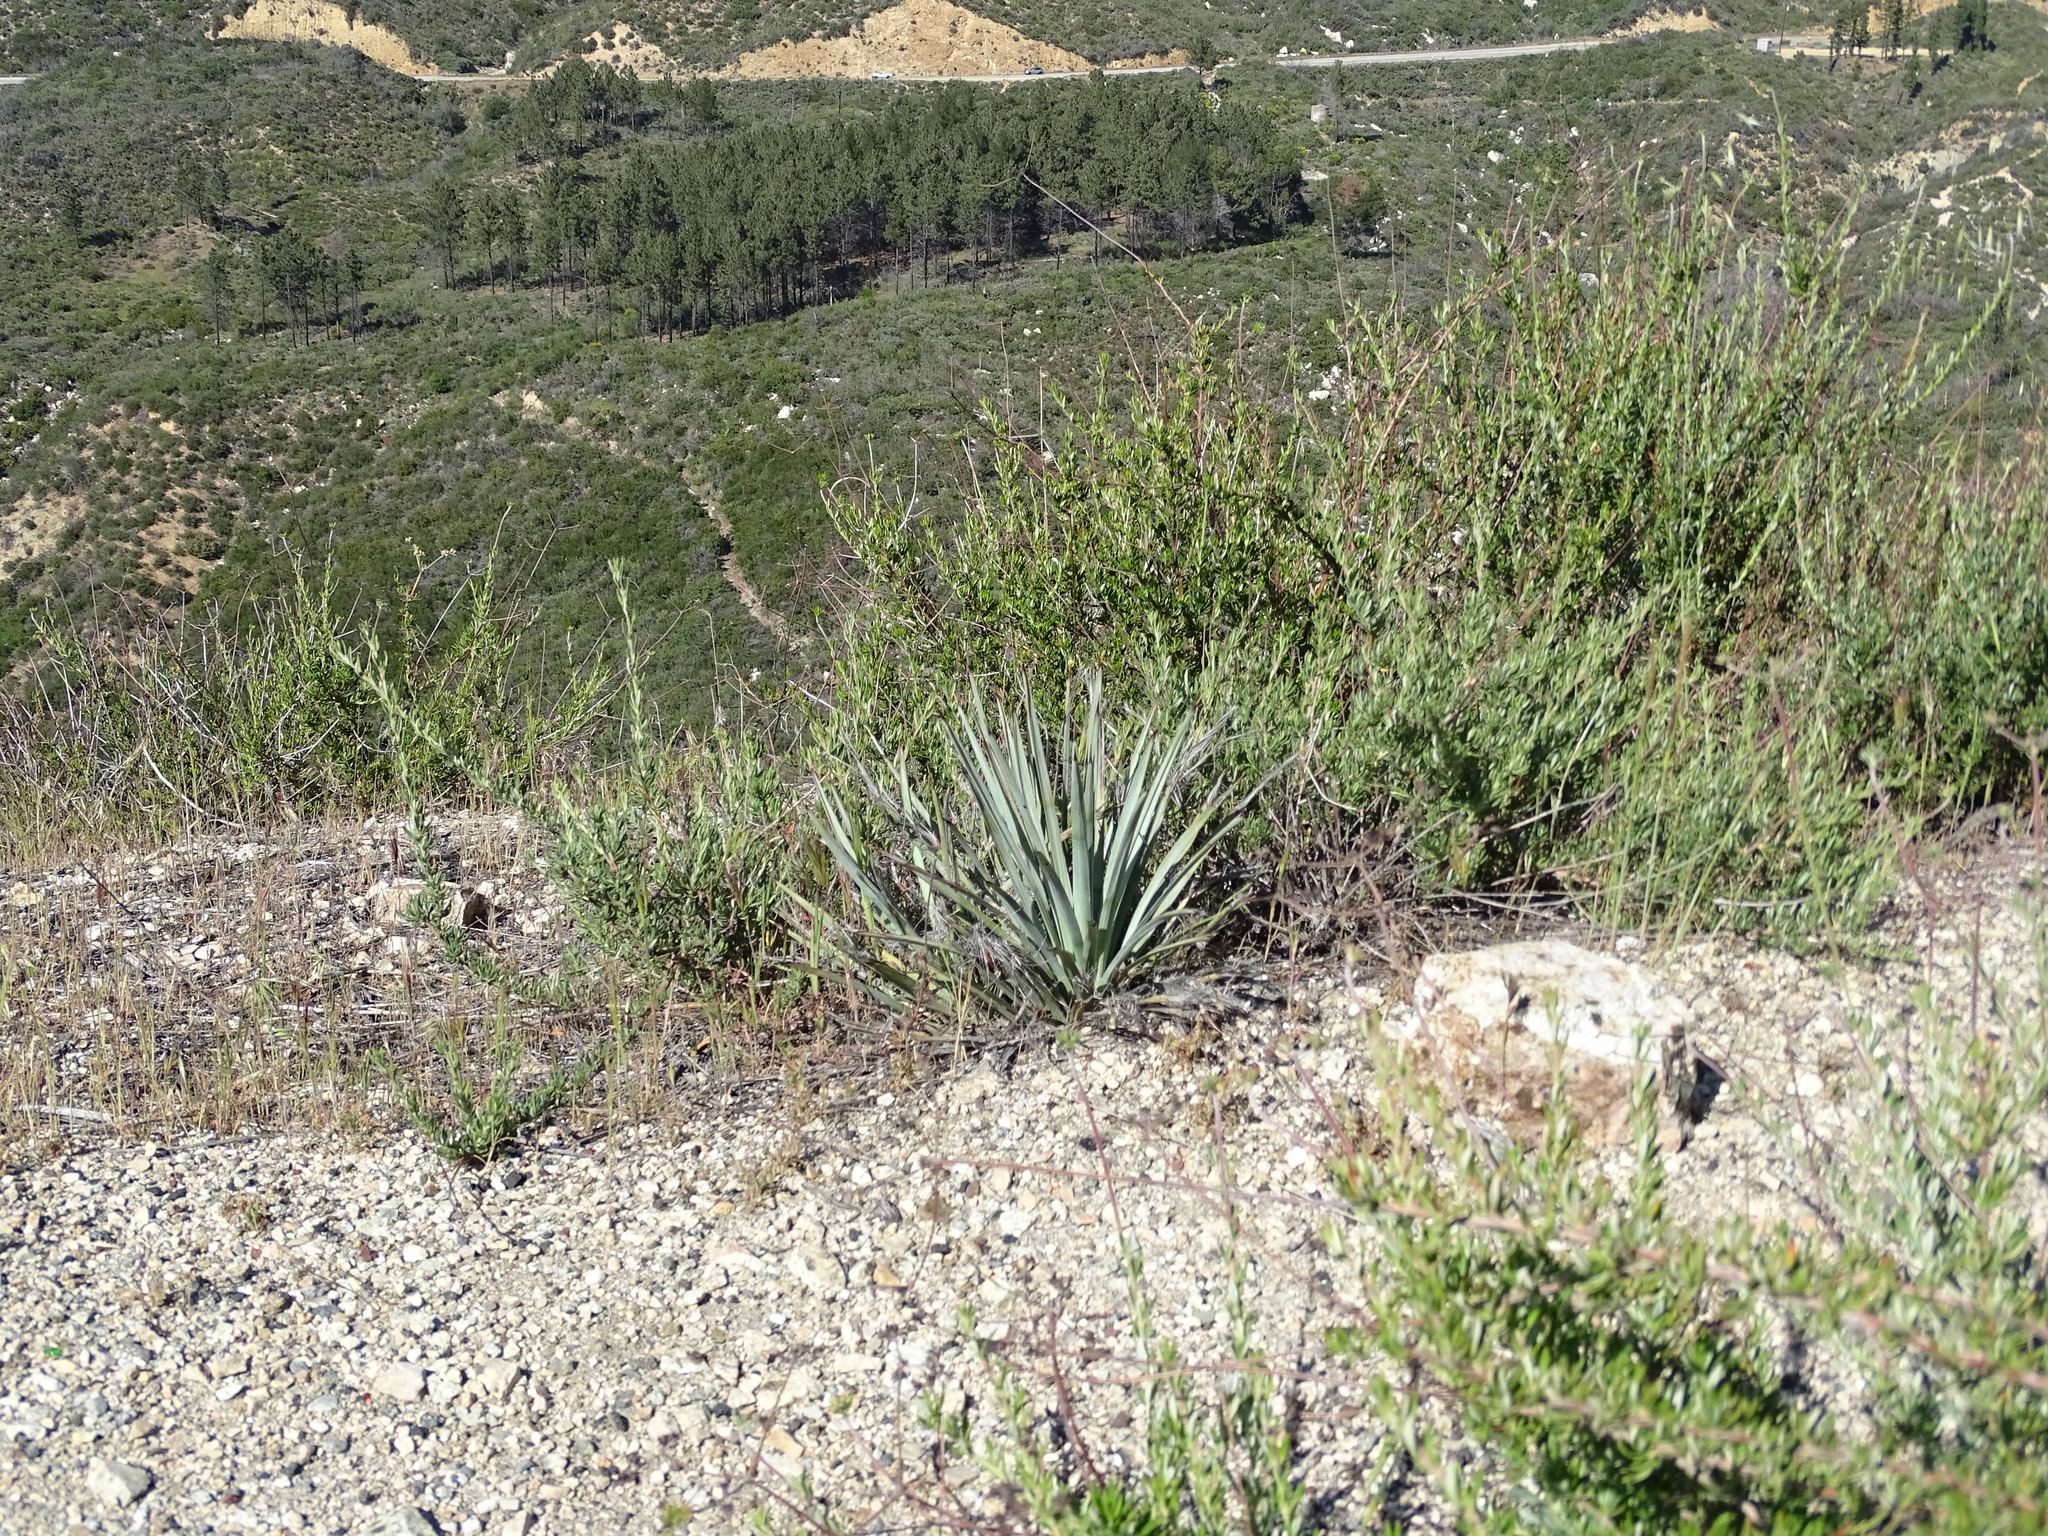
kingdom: Plantae
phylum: Tracheophyta
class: Liliopsida
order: Asparagales
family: Asparagaceae
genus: Hesperoyucca
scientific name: Hesperoyucca whipplei
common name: Our lord's-candle
